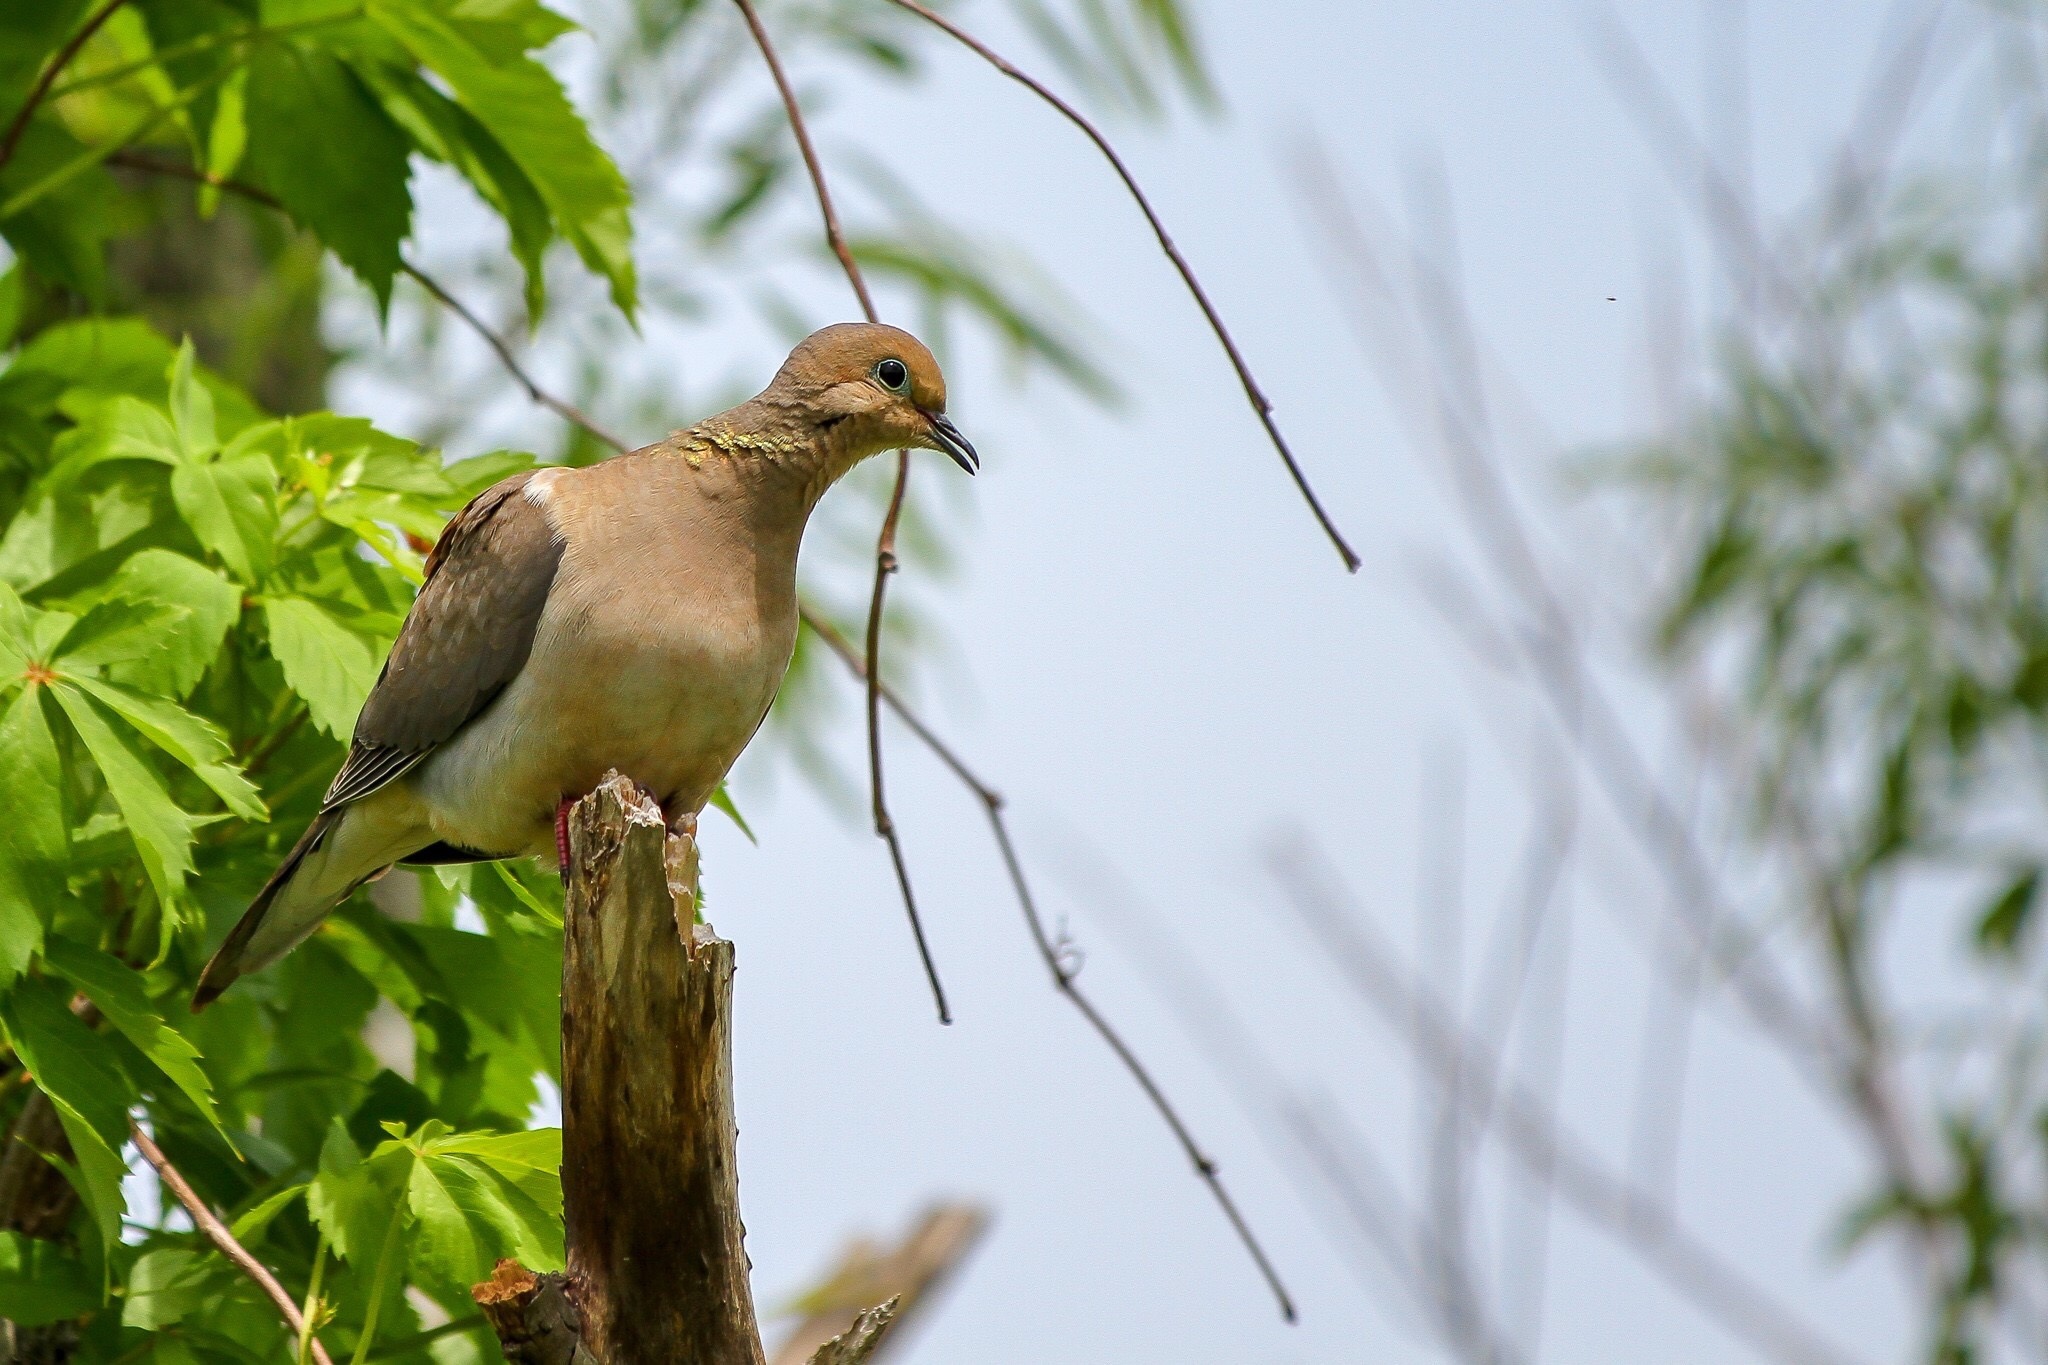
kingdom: Animalia
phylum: Chordata
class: Aves
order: Columbiformes
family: Columbidae
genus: Zenaida
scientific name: Zenaida macroura
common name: Mourning dove
